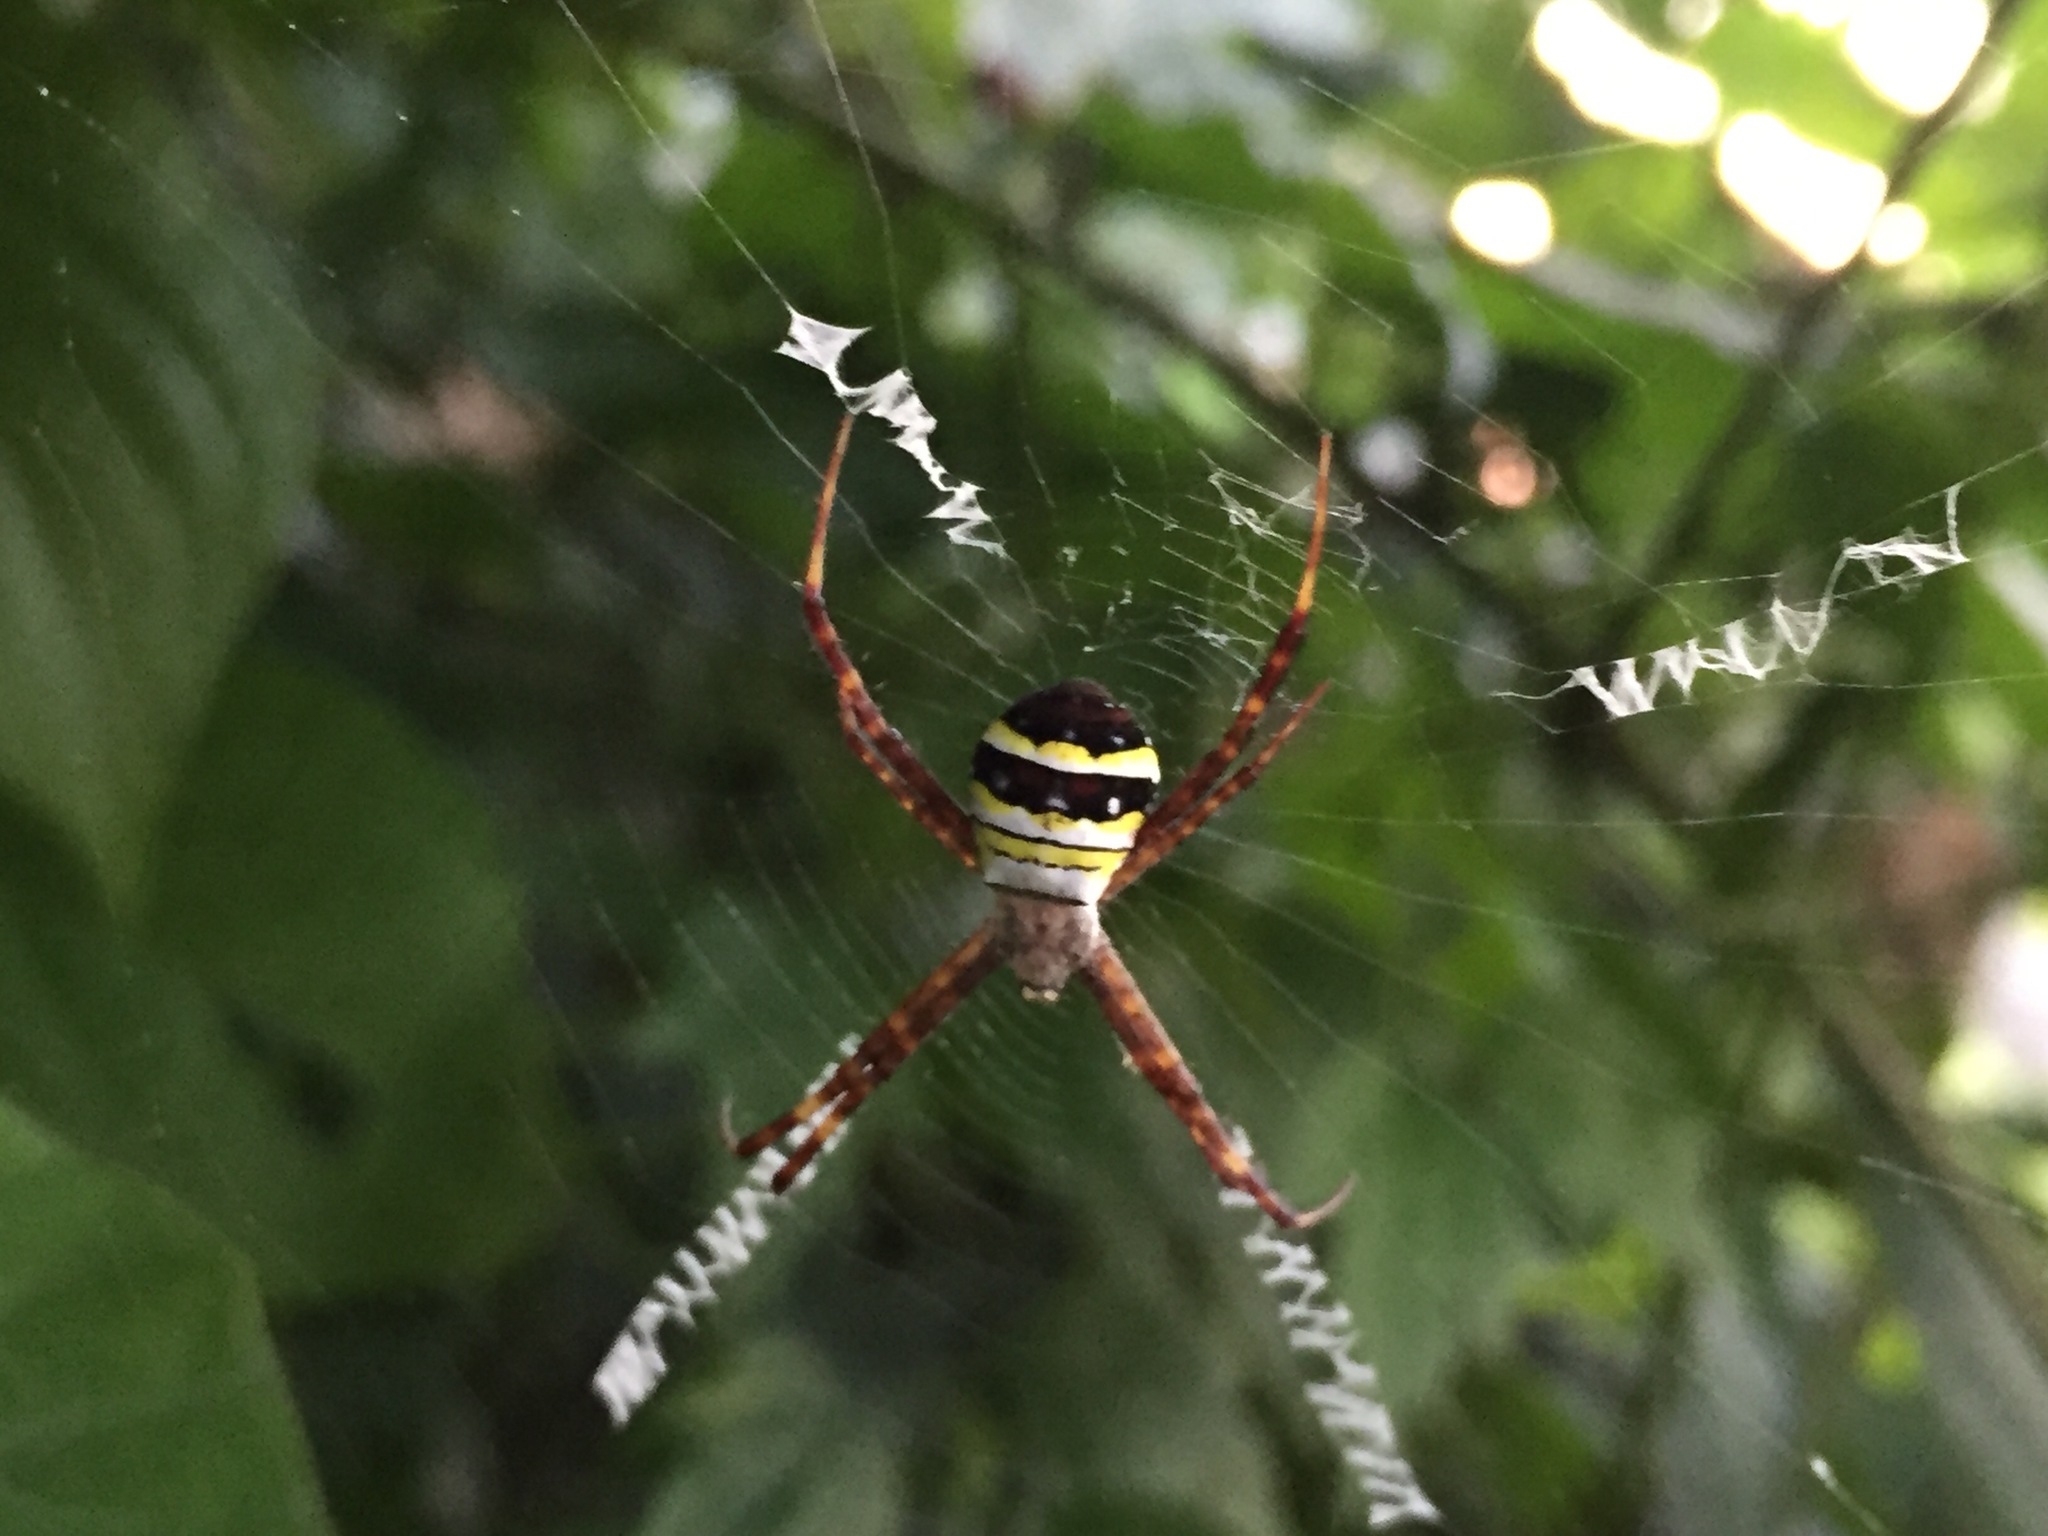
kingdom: Animalia
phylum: Arthropoda
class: Arachnida
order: Araneae
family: Araneidae
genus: Argiope
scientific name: Argiope minuta
